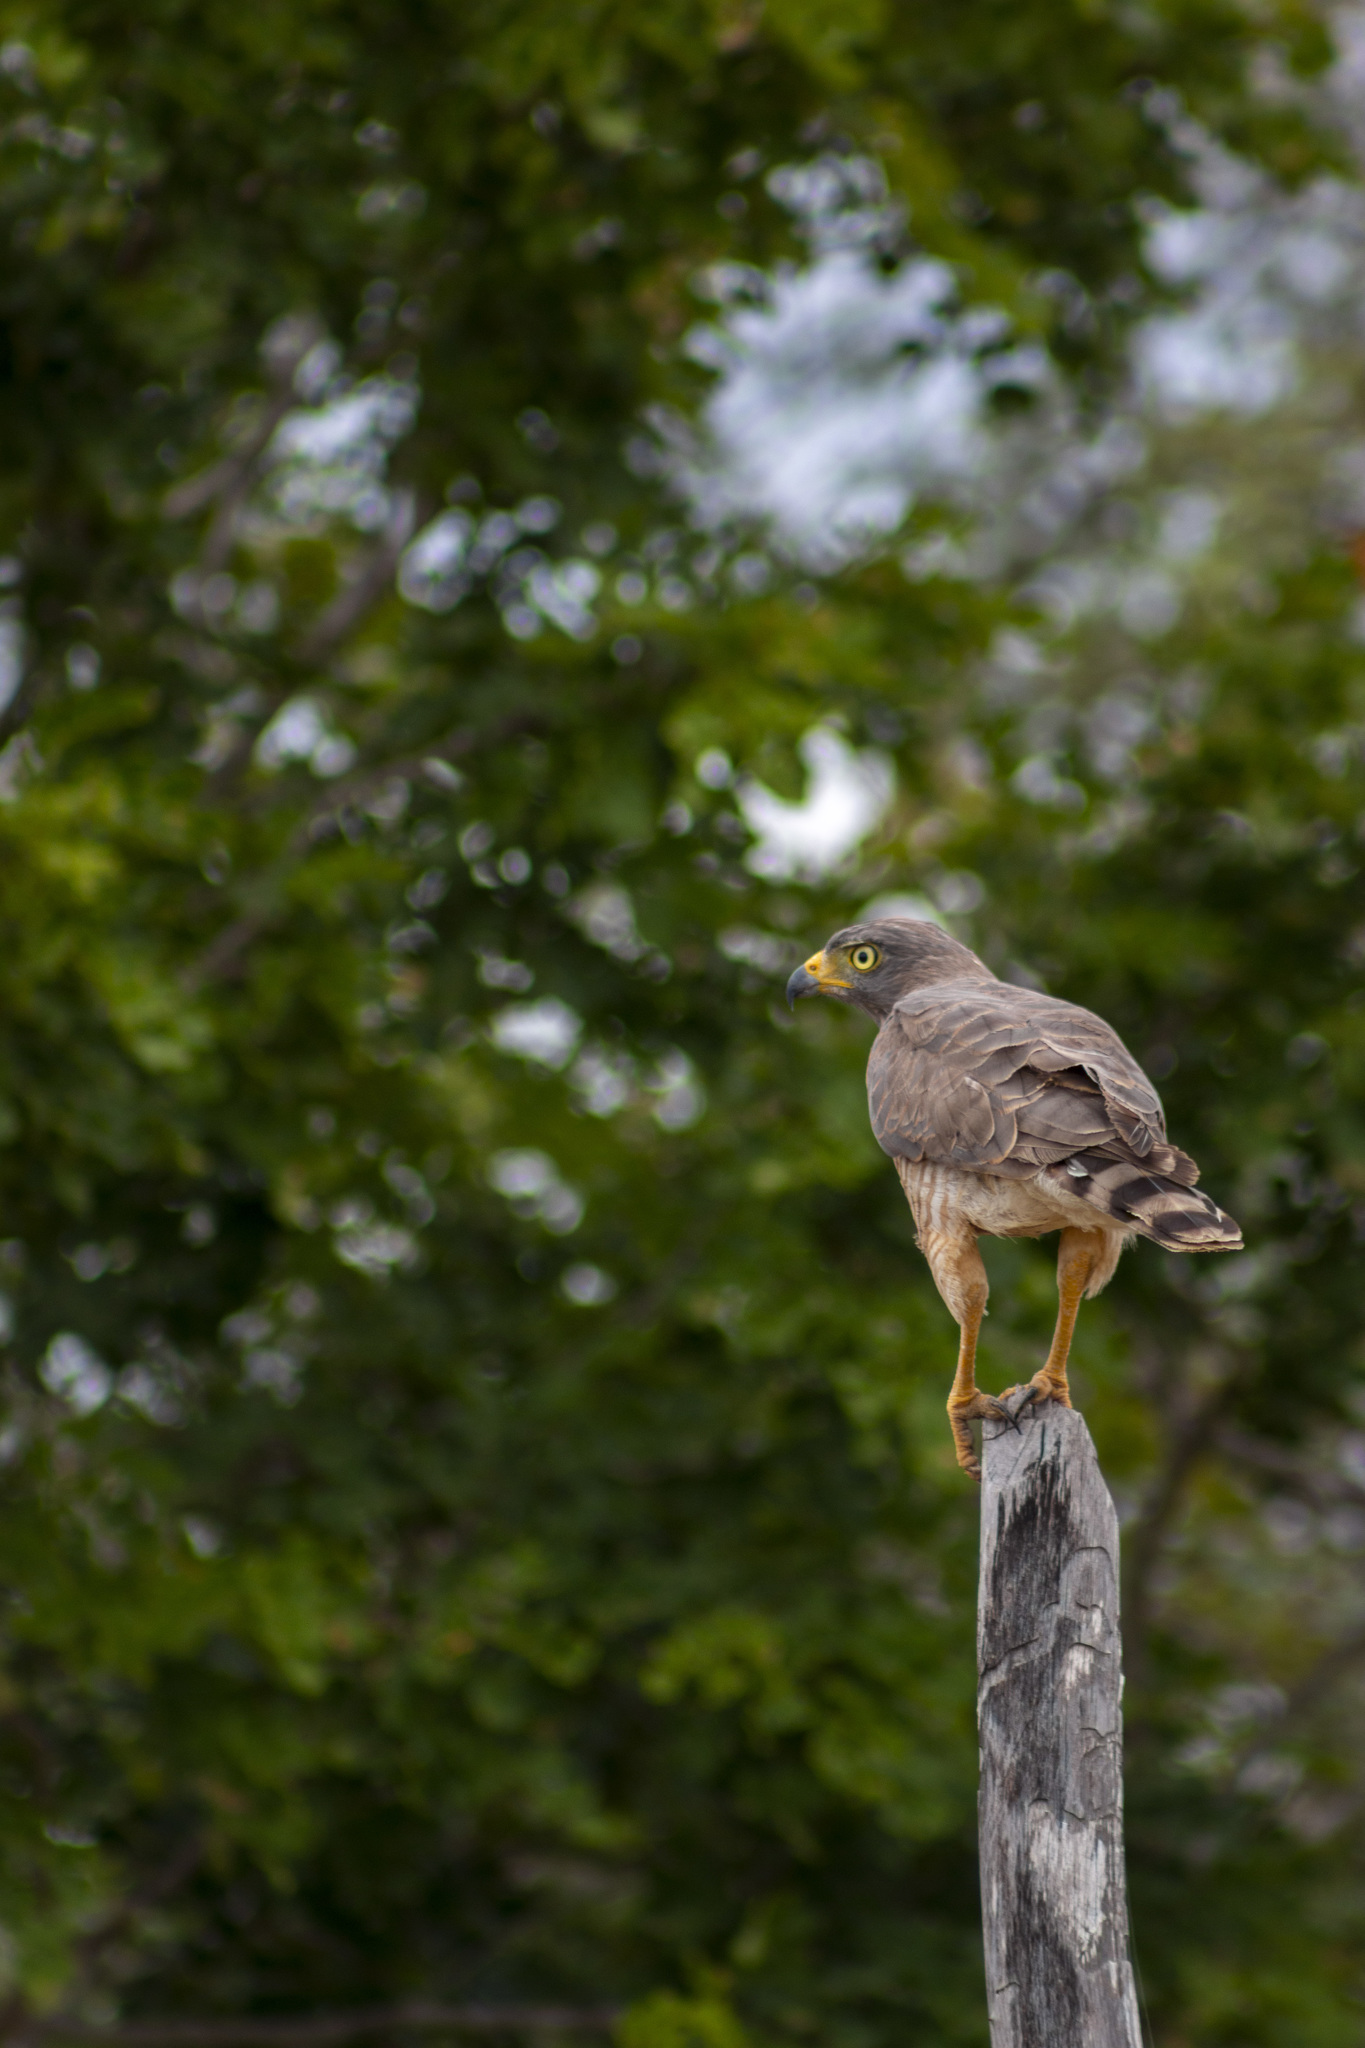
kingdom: Animalia
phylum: Chordata
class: Aves
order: Accipitriformes
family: Accipitridae
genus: Rupornis
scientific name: Rupornis magnirostris
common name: Roadside hawk
